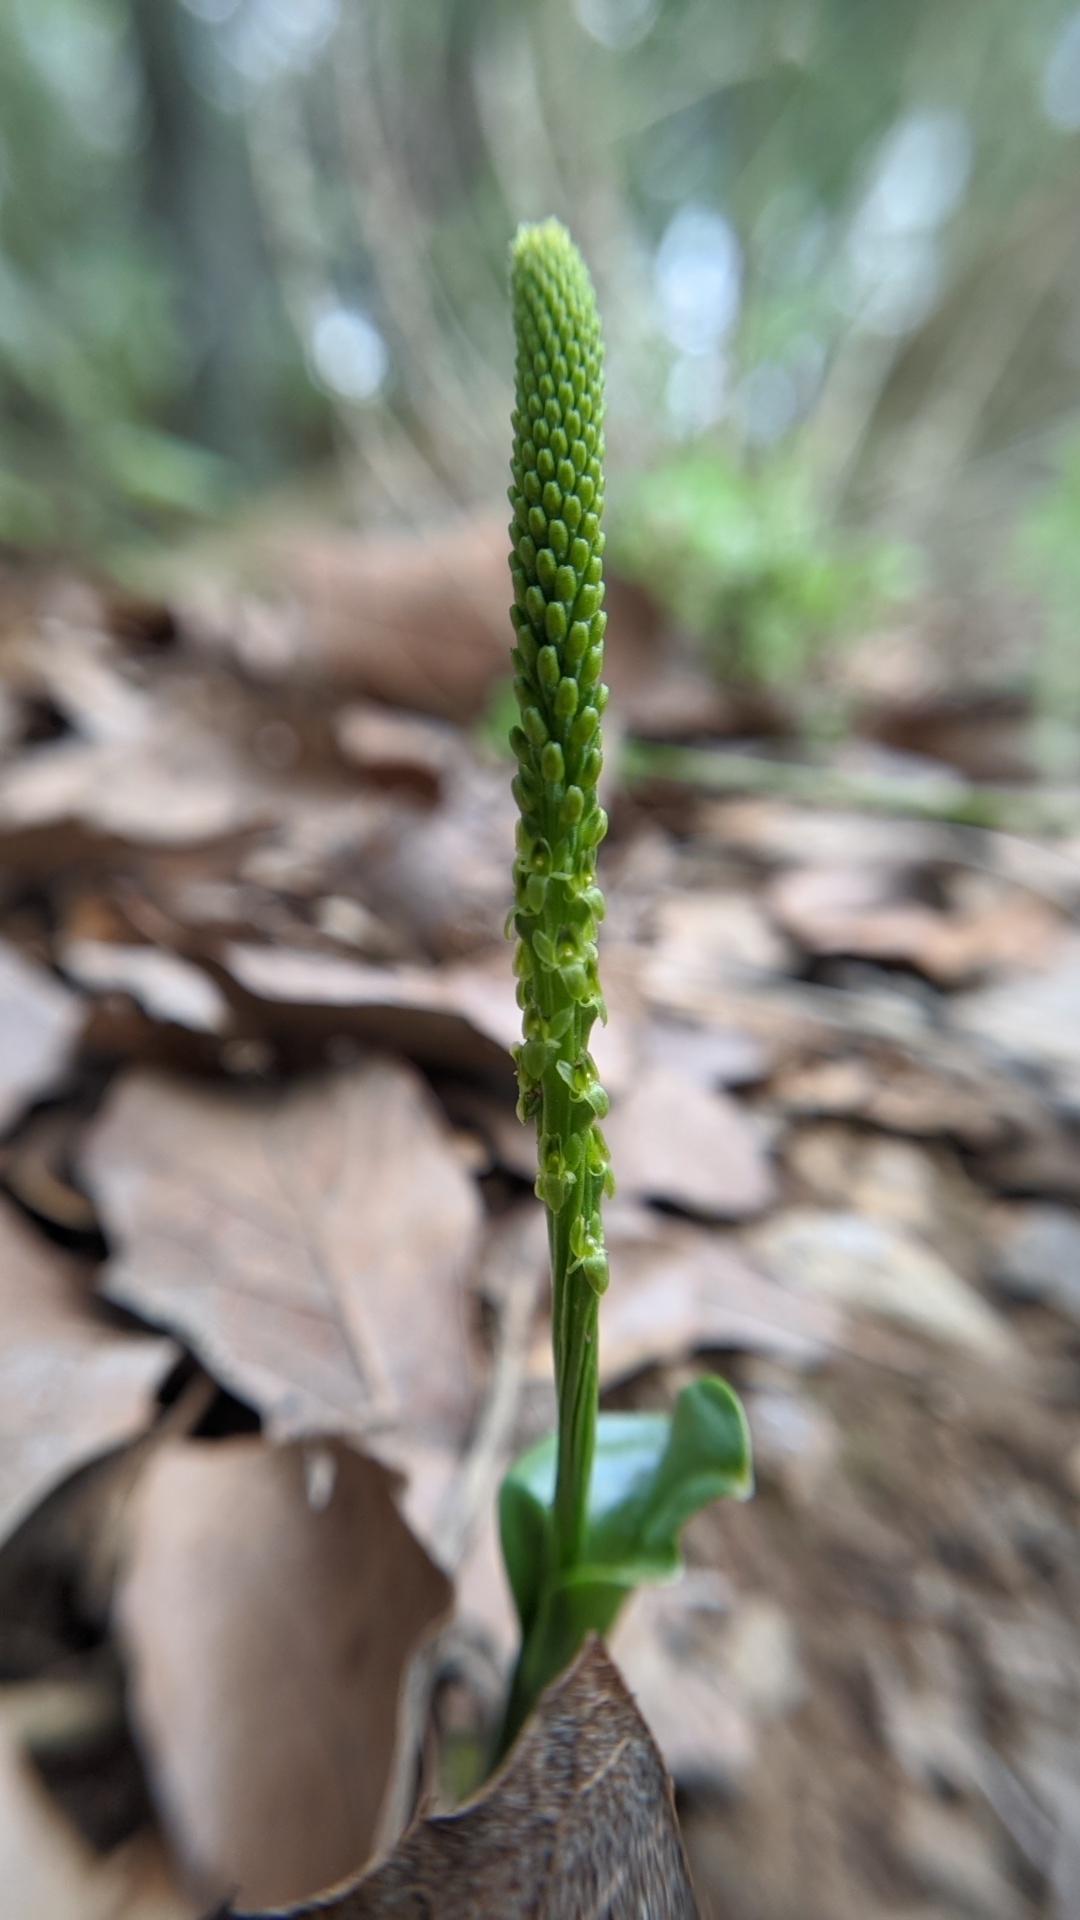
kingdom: Plantae
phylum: Tracheophyta
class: Liliopsida
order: Asparagales
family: Orchidaceae
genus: Malaxis
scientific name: Malaxis macrostachya
